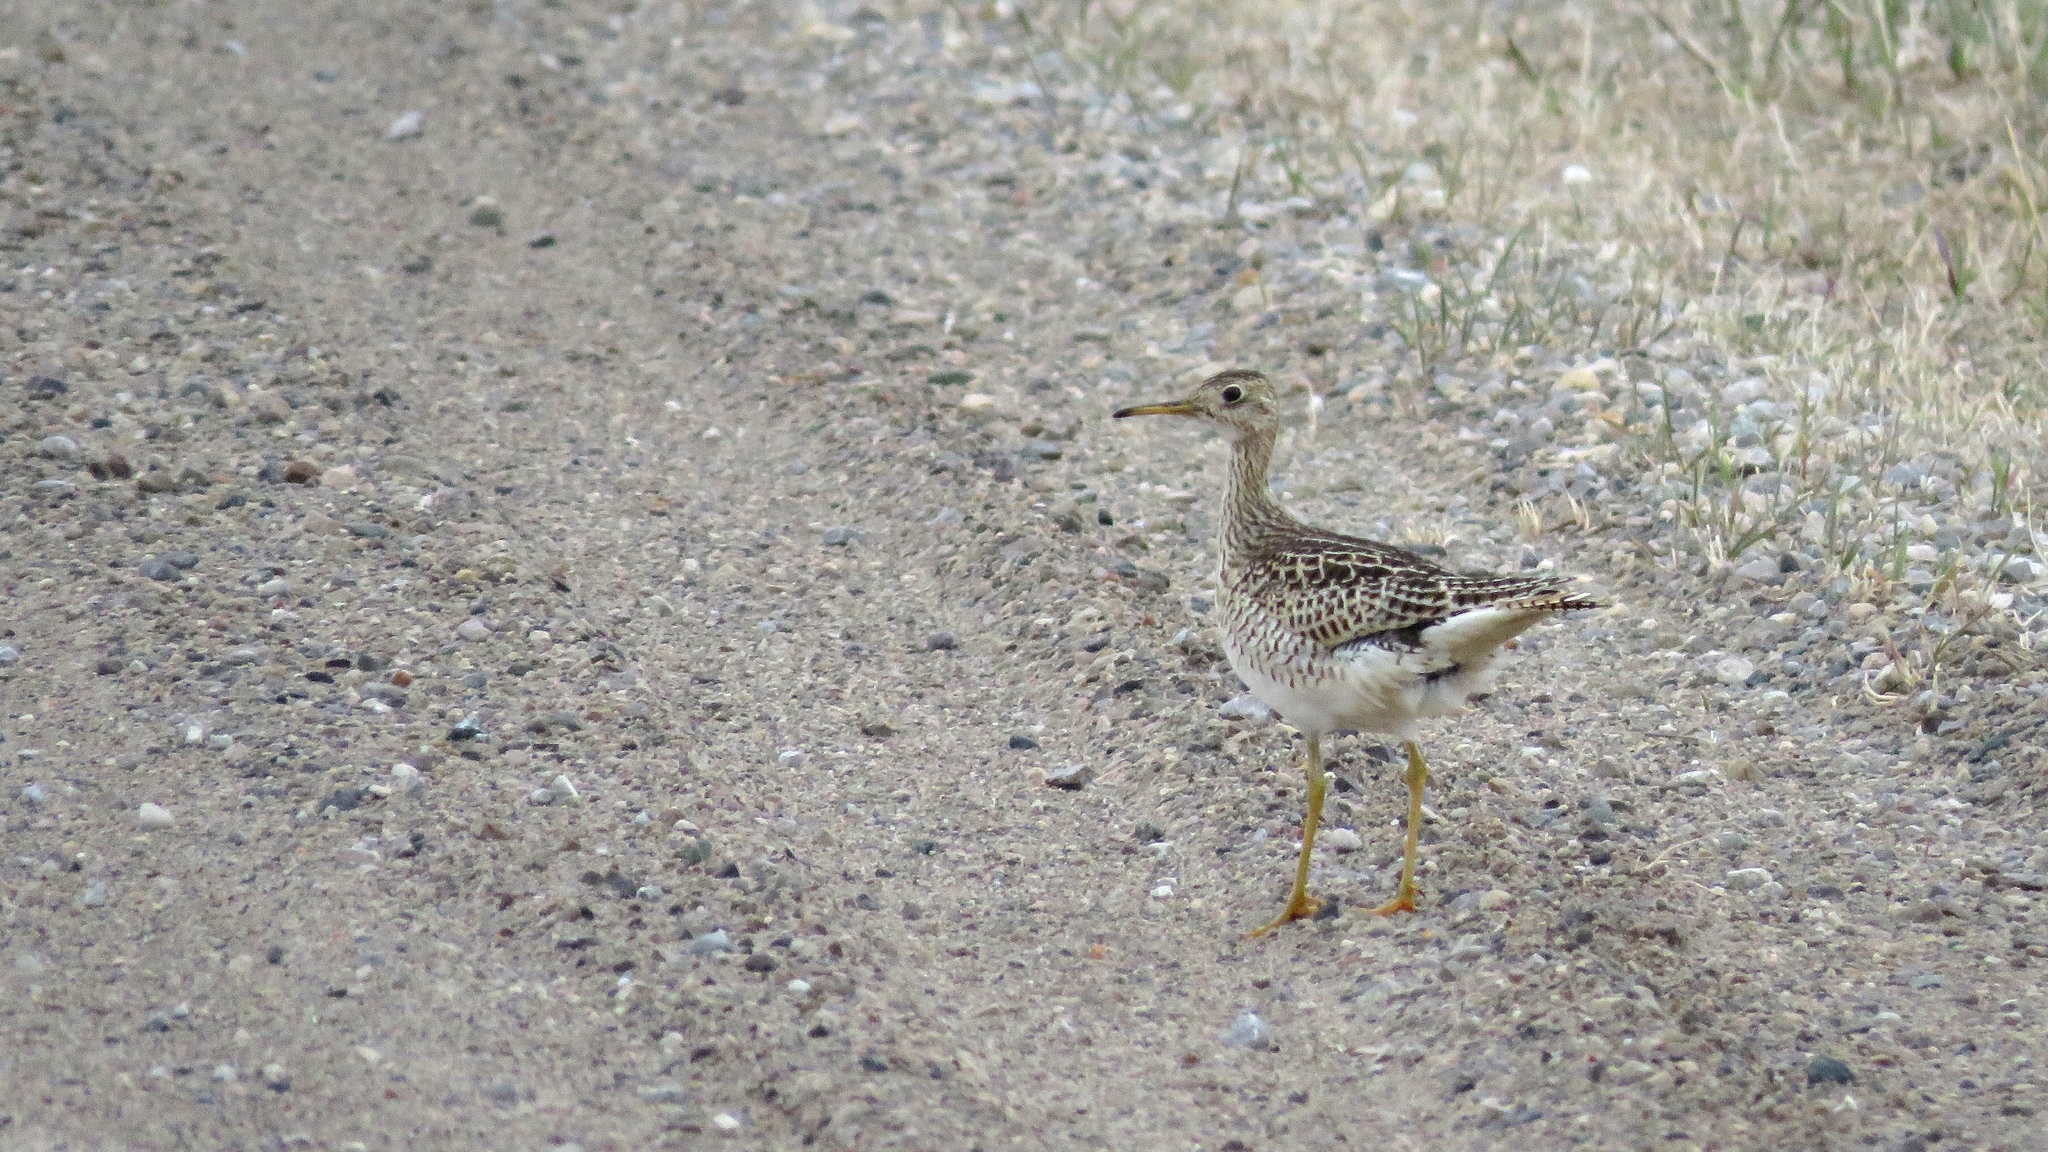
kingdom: Animalia
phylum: Chordata
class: Aves
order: Charadriiformes
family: Scolopacidae
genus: Bartramia
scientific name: Bartramia longicauda
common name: Upland sandpiper
